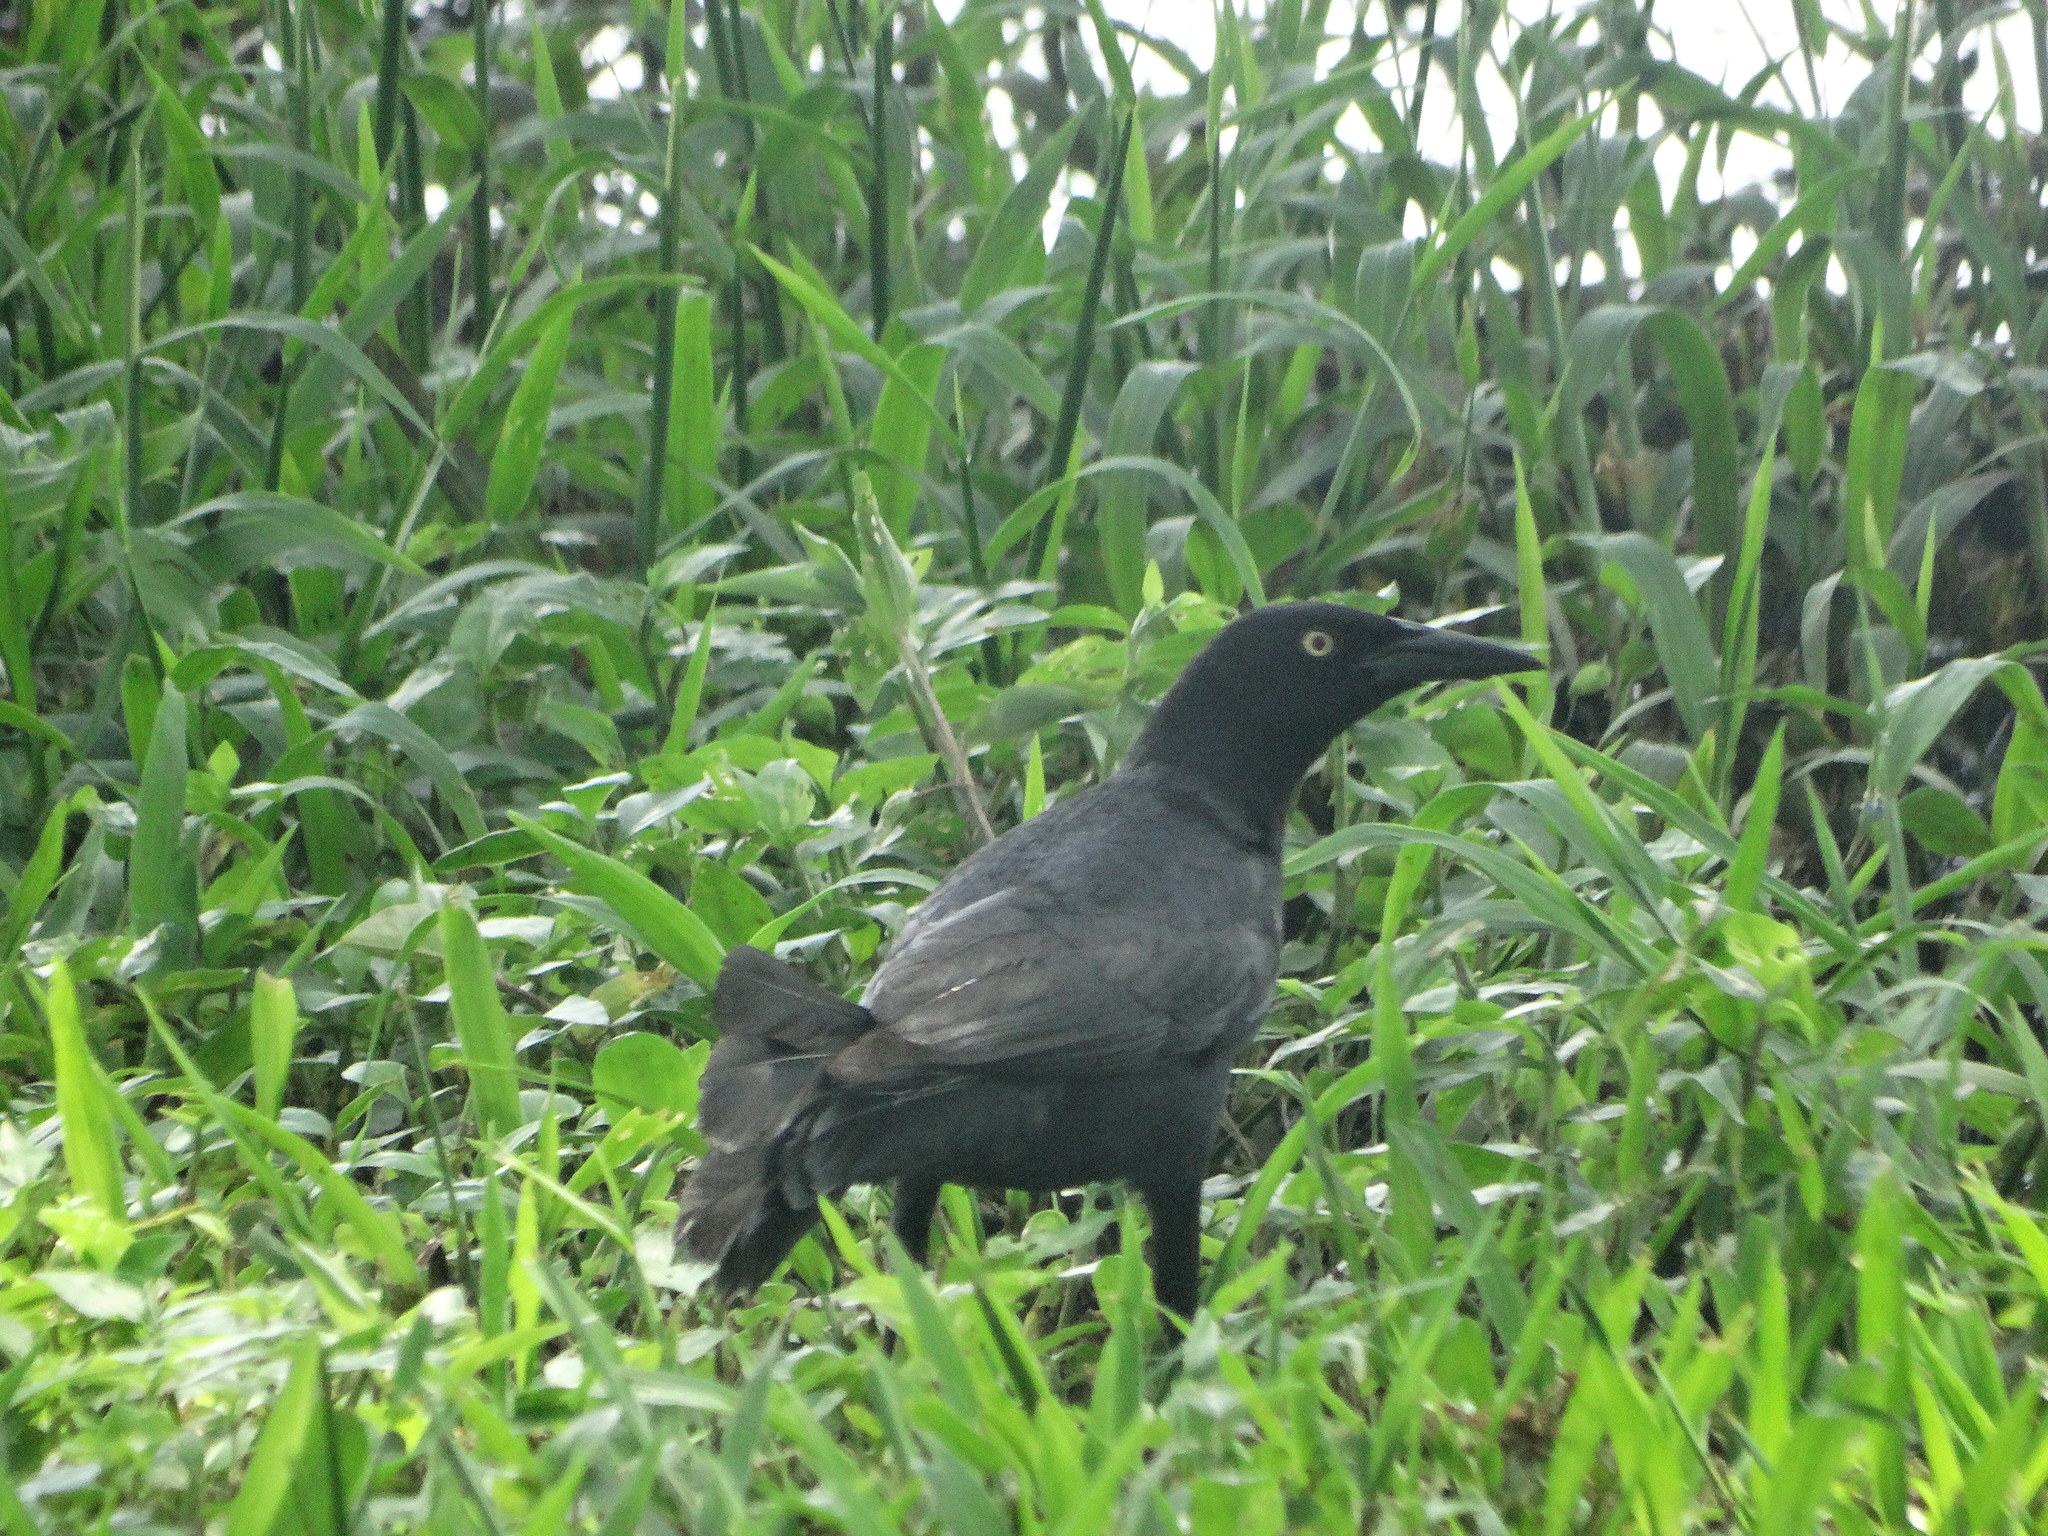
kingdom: Animalia
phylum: Chordata
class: Aves
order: Passeriformes
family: Icteridae
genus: Quiscalus
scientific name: Quiscalus niger
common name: Greater antillean grackle
